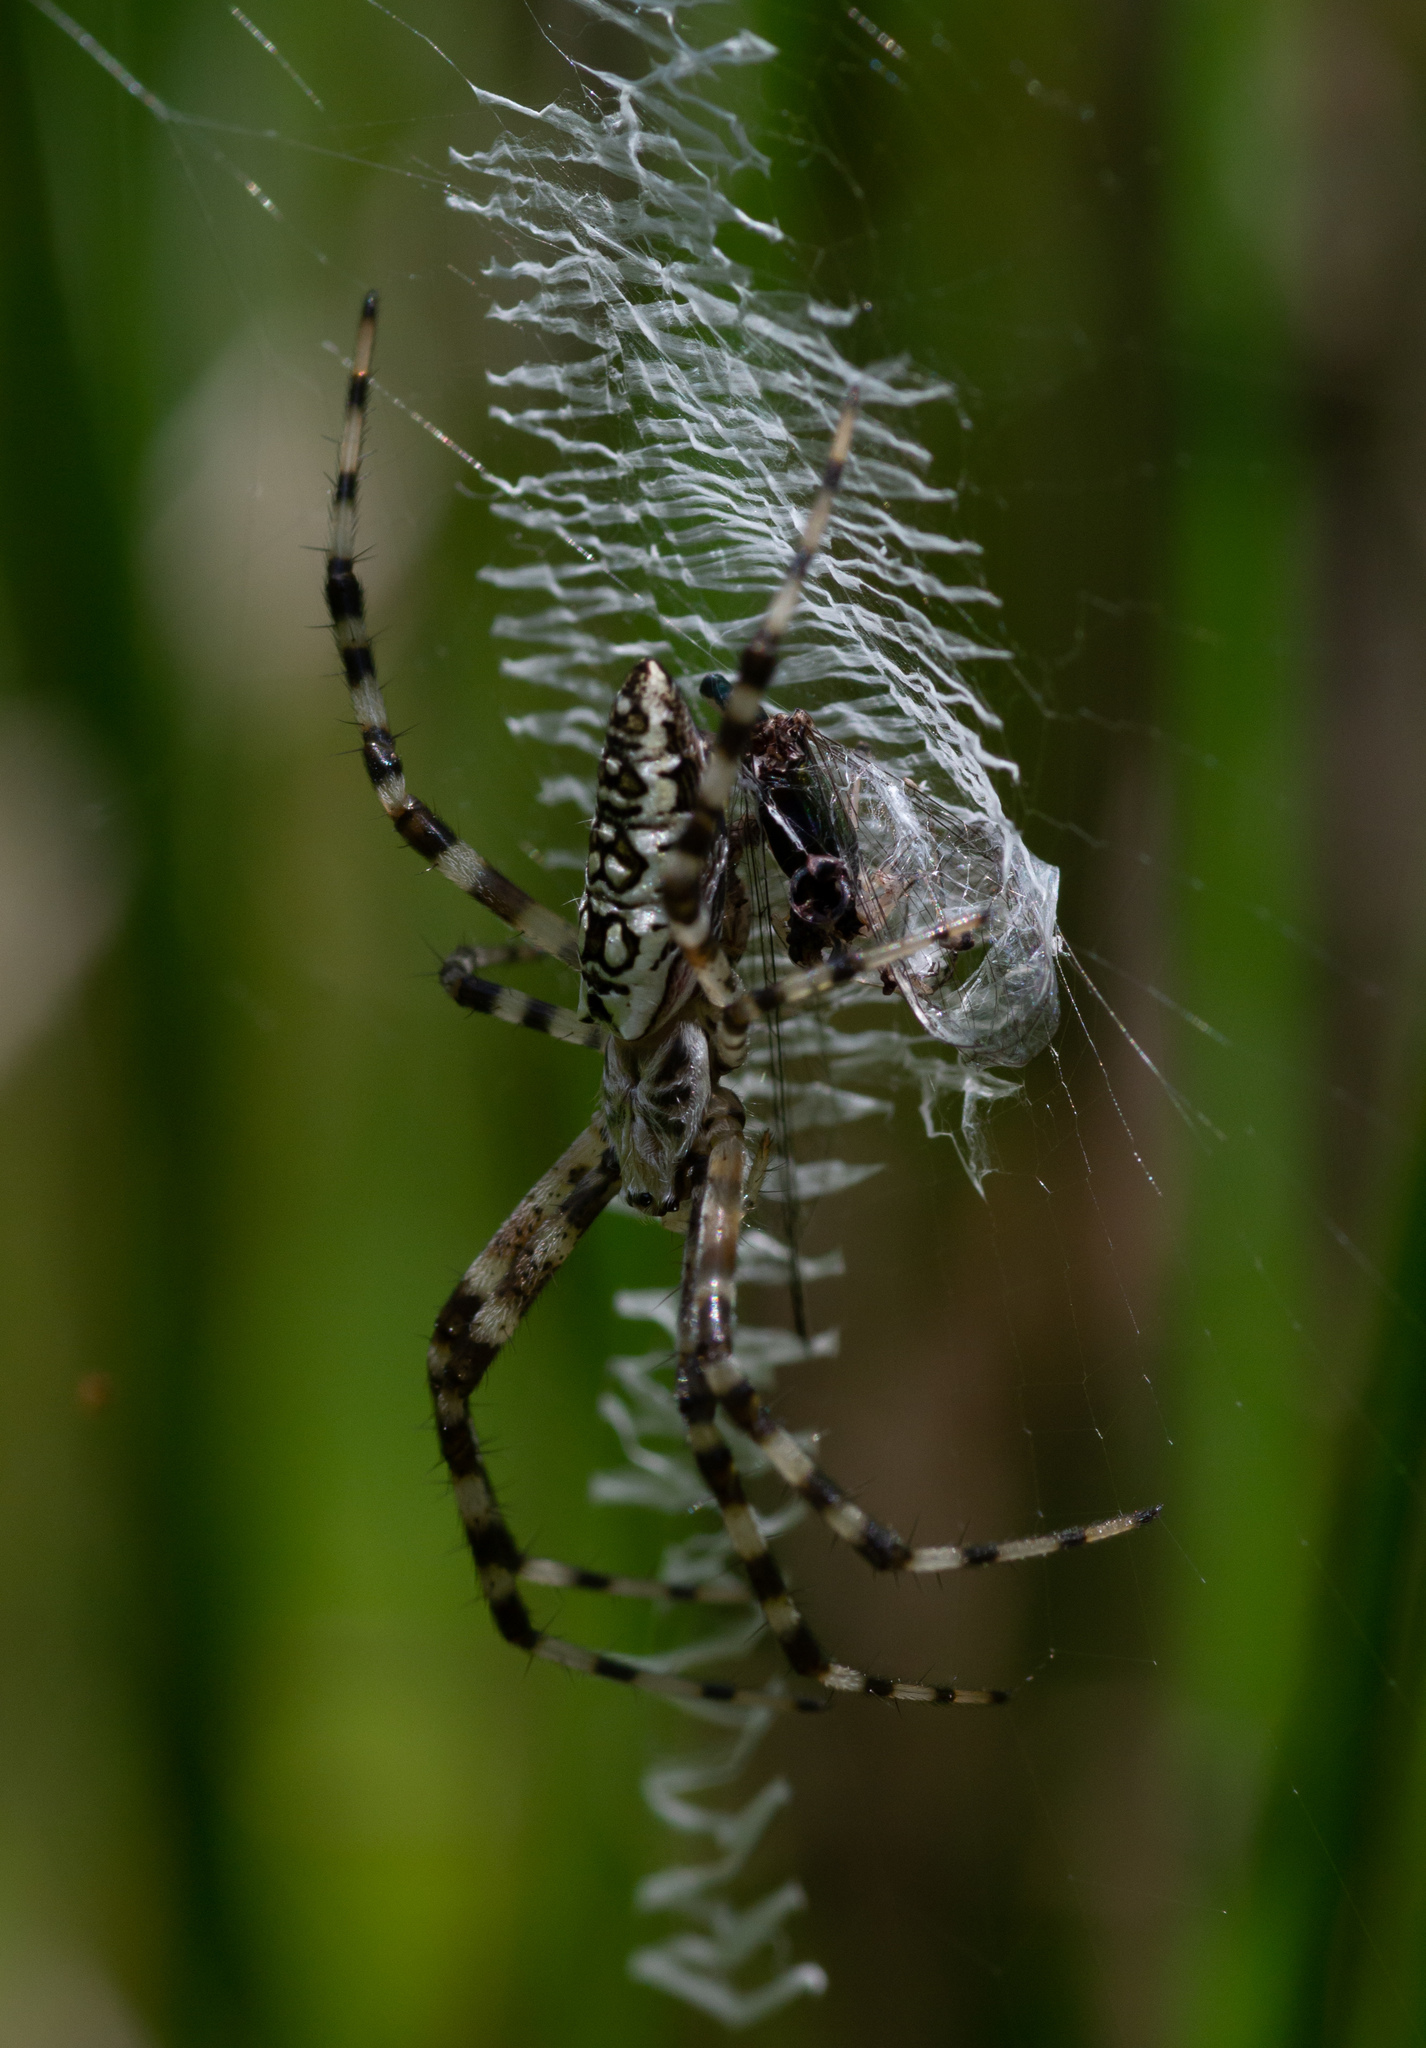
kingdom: Animalia
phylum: Arthropoda
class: Arachnida
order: Araneae
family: Araneidae
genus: Argiope
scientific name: Argiope aurantia
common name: Orb weavers
